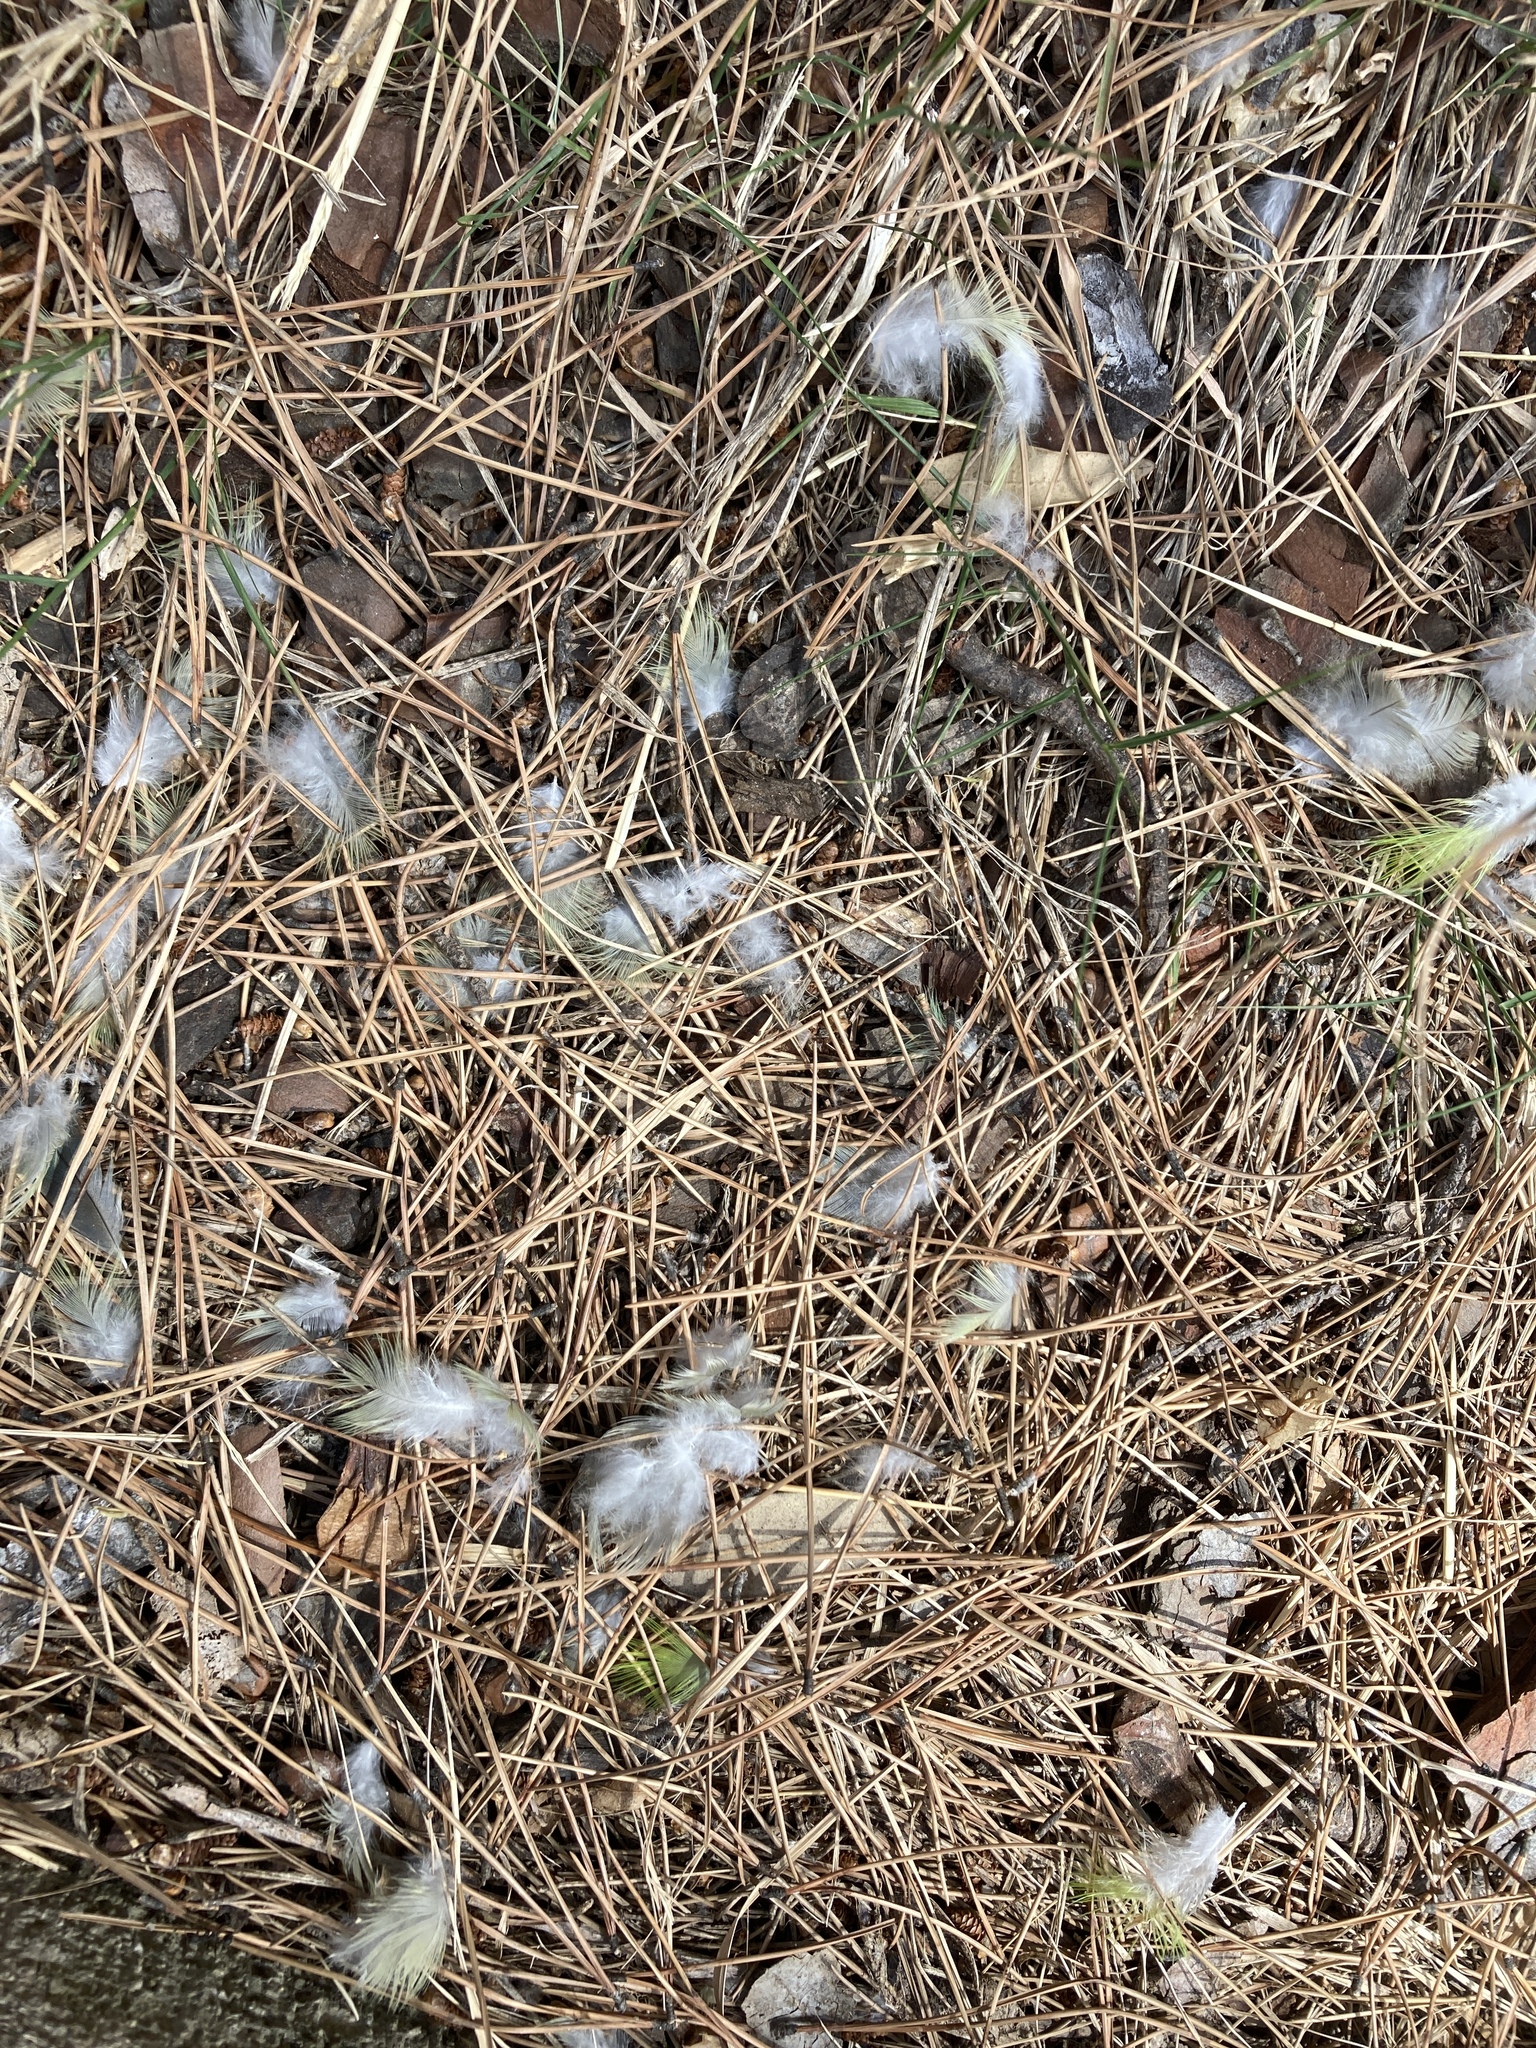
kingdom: Animalia
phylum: Chordata
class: Aves
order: Psittaciformes
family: Psittacidae
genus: Myiopsitta
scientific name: Myiopsitta monachus
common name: Monk parakeet
